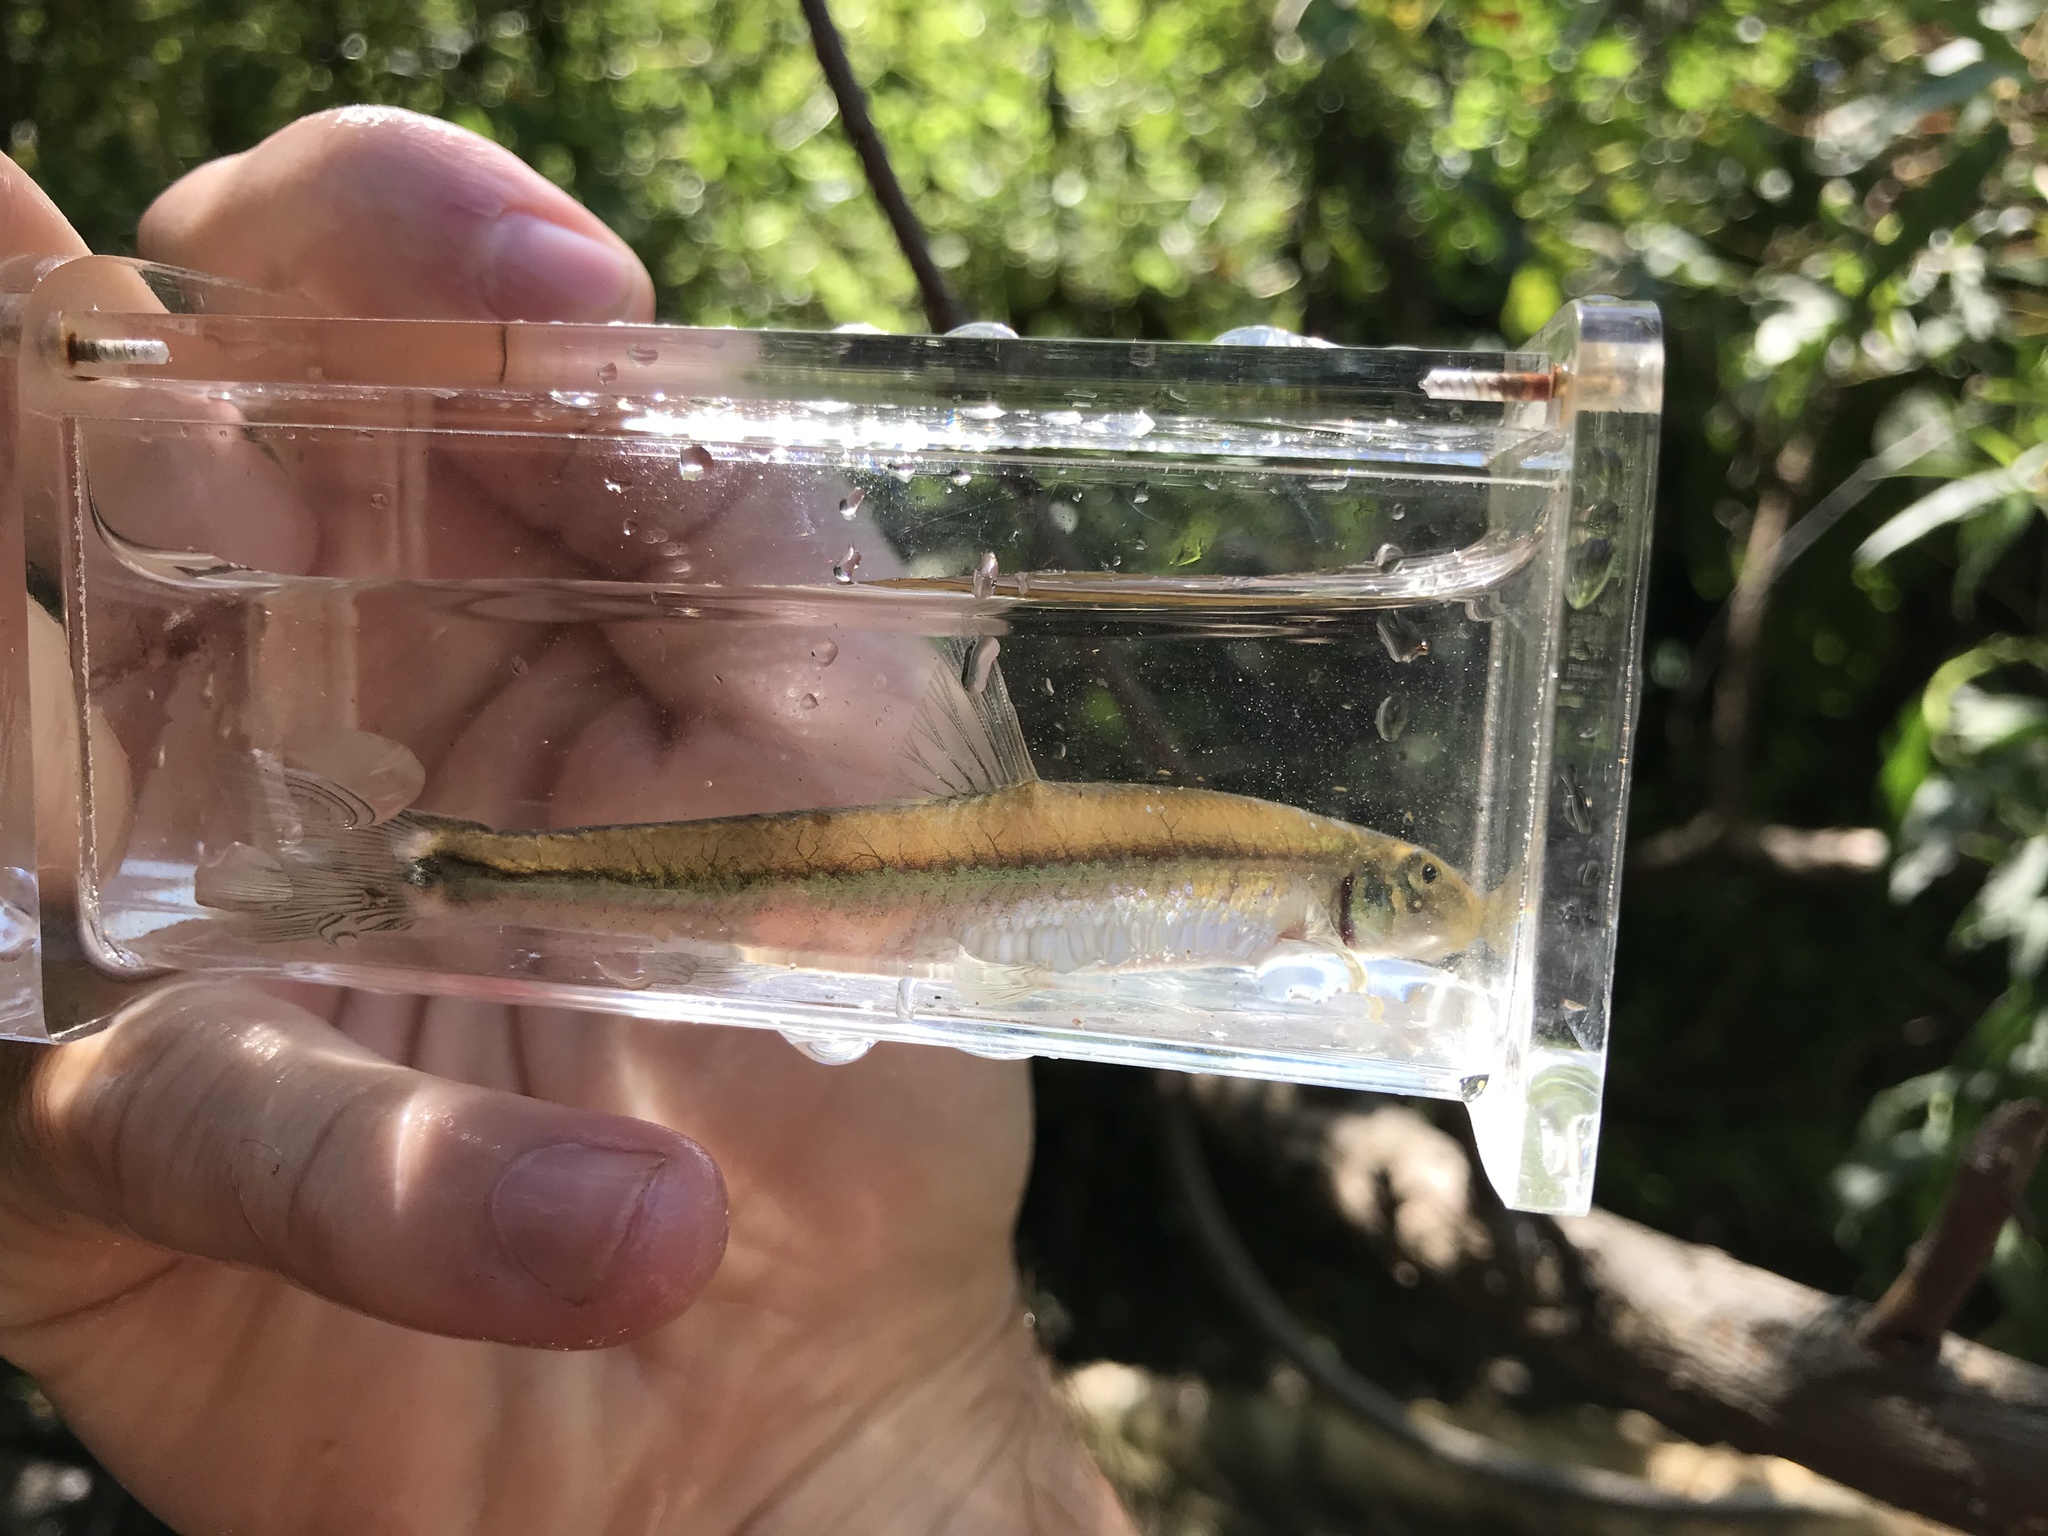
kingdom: Animalia
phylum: Chordata
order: Cypriniformes
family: Cyprinidae
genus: Phenacobius
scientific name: Phenacobius crassilabrum
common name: Fatlips minnow
